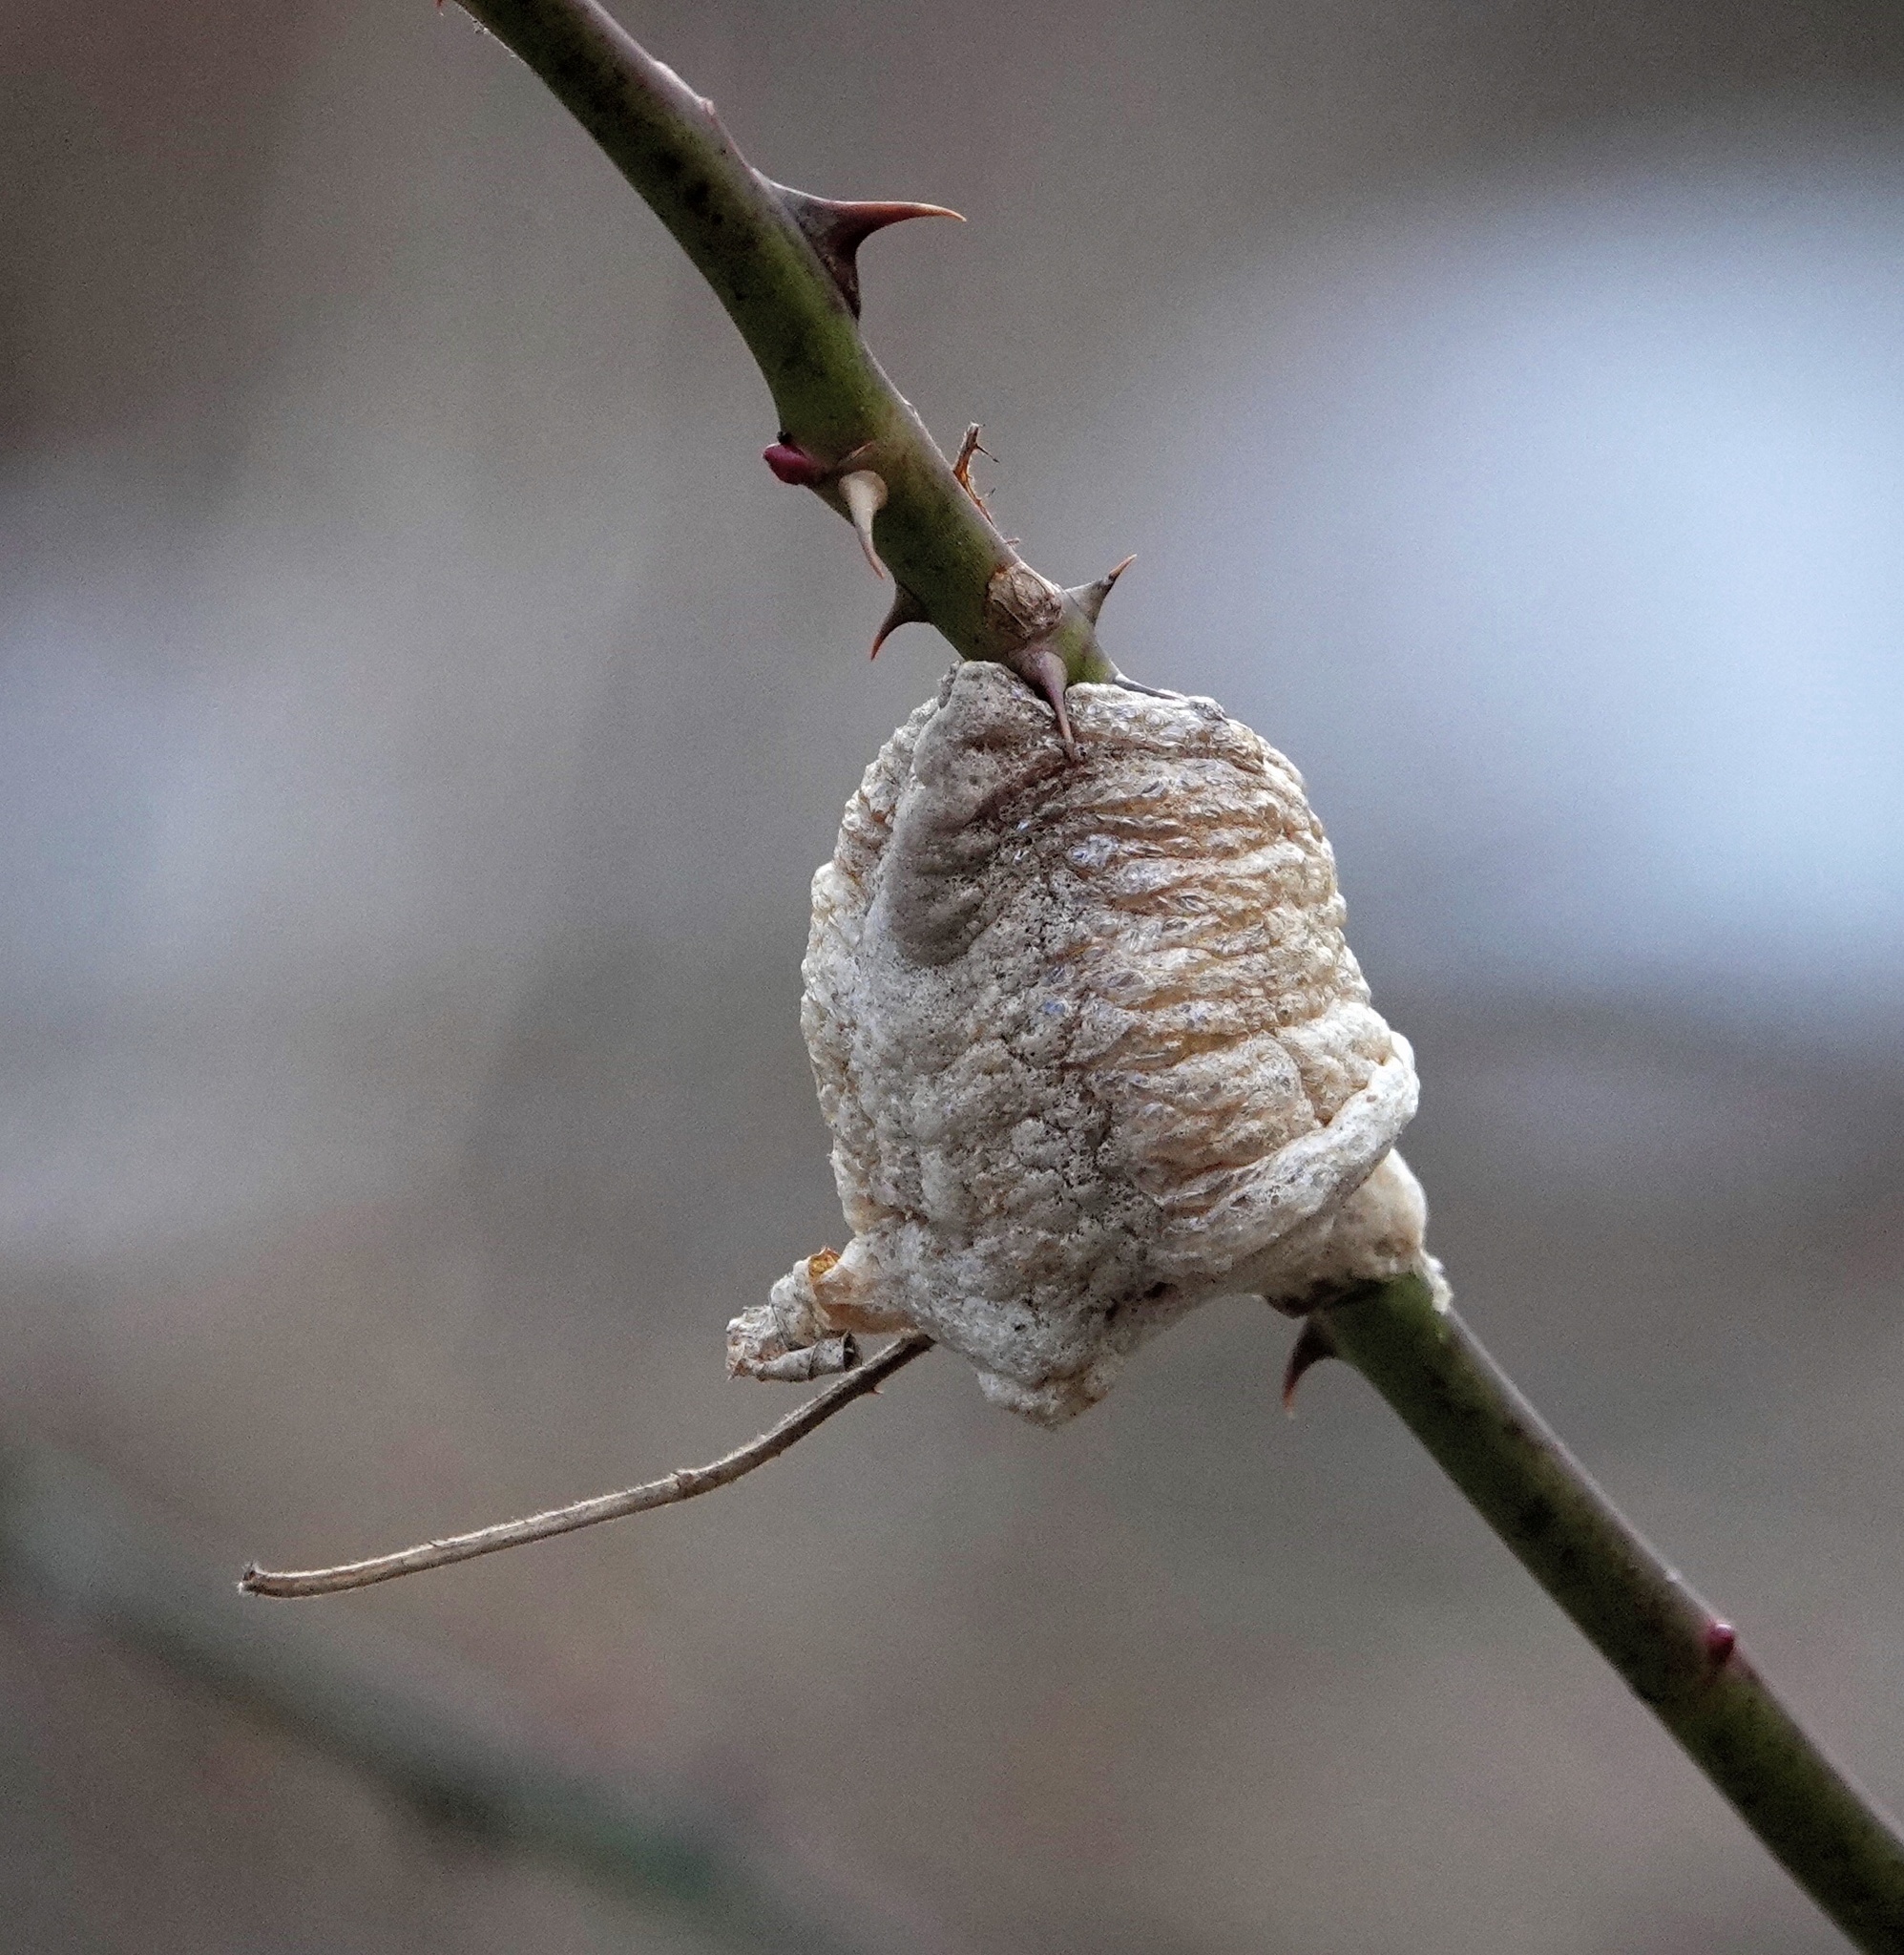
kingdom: Animalia
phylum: Arthropoda
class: Insecta
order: Mantodea
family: Mantidae
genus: Tenodera
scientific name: Tenodera sinensis
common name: Chinese mantis
